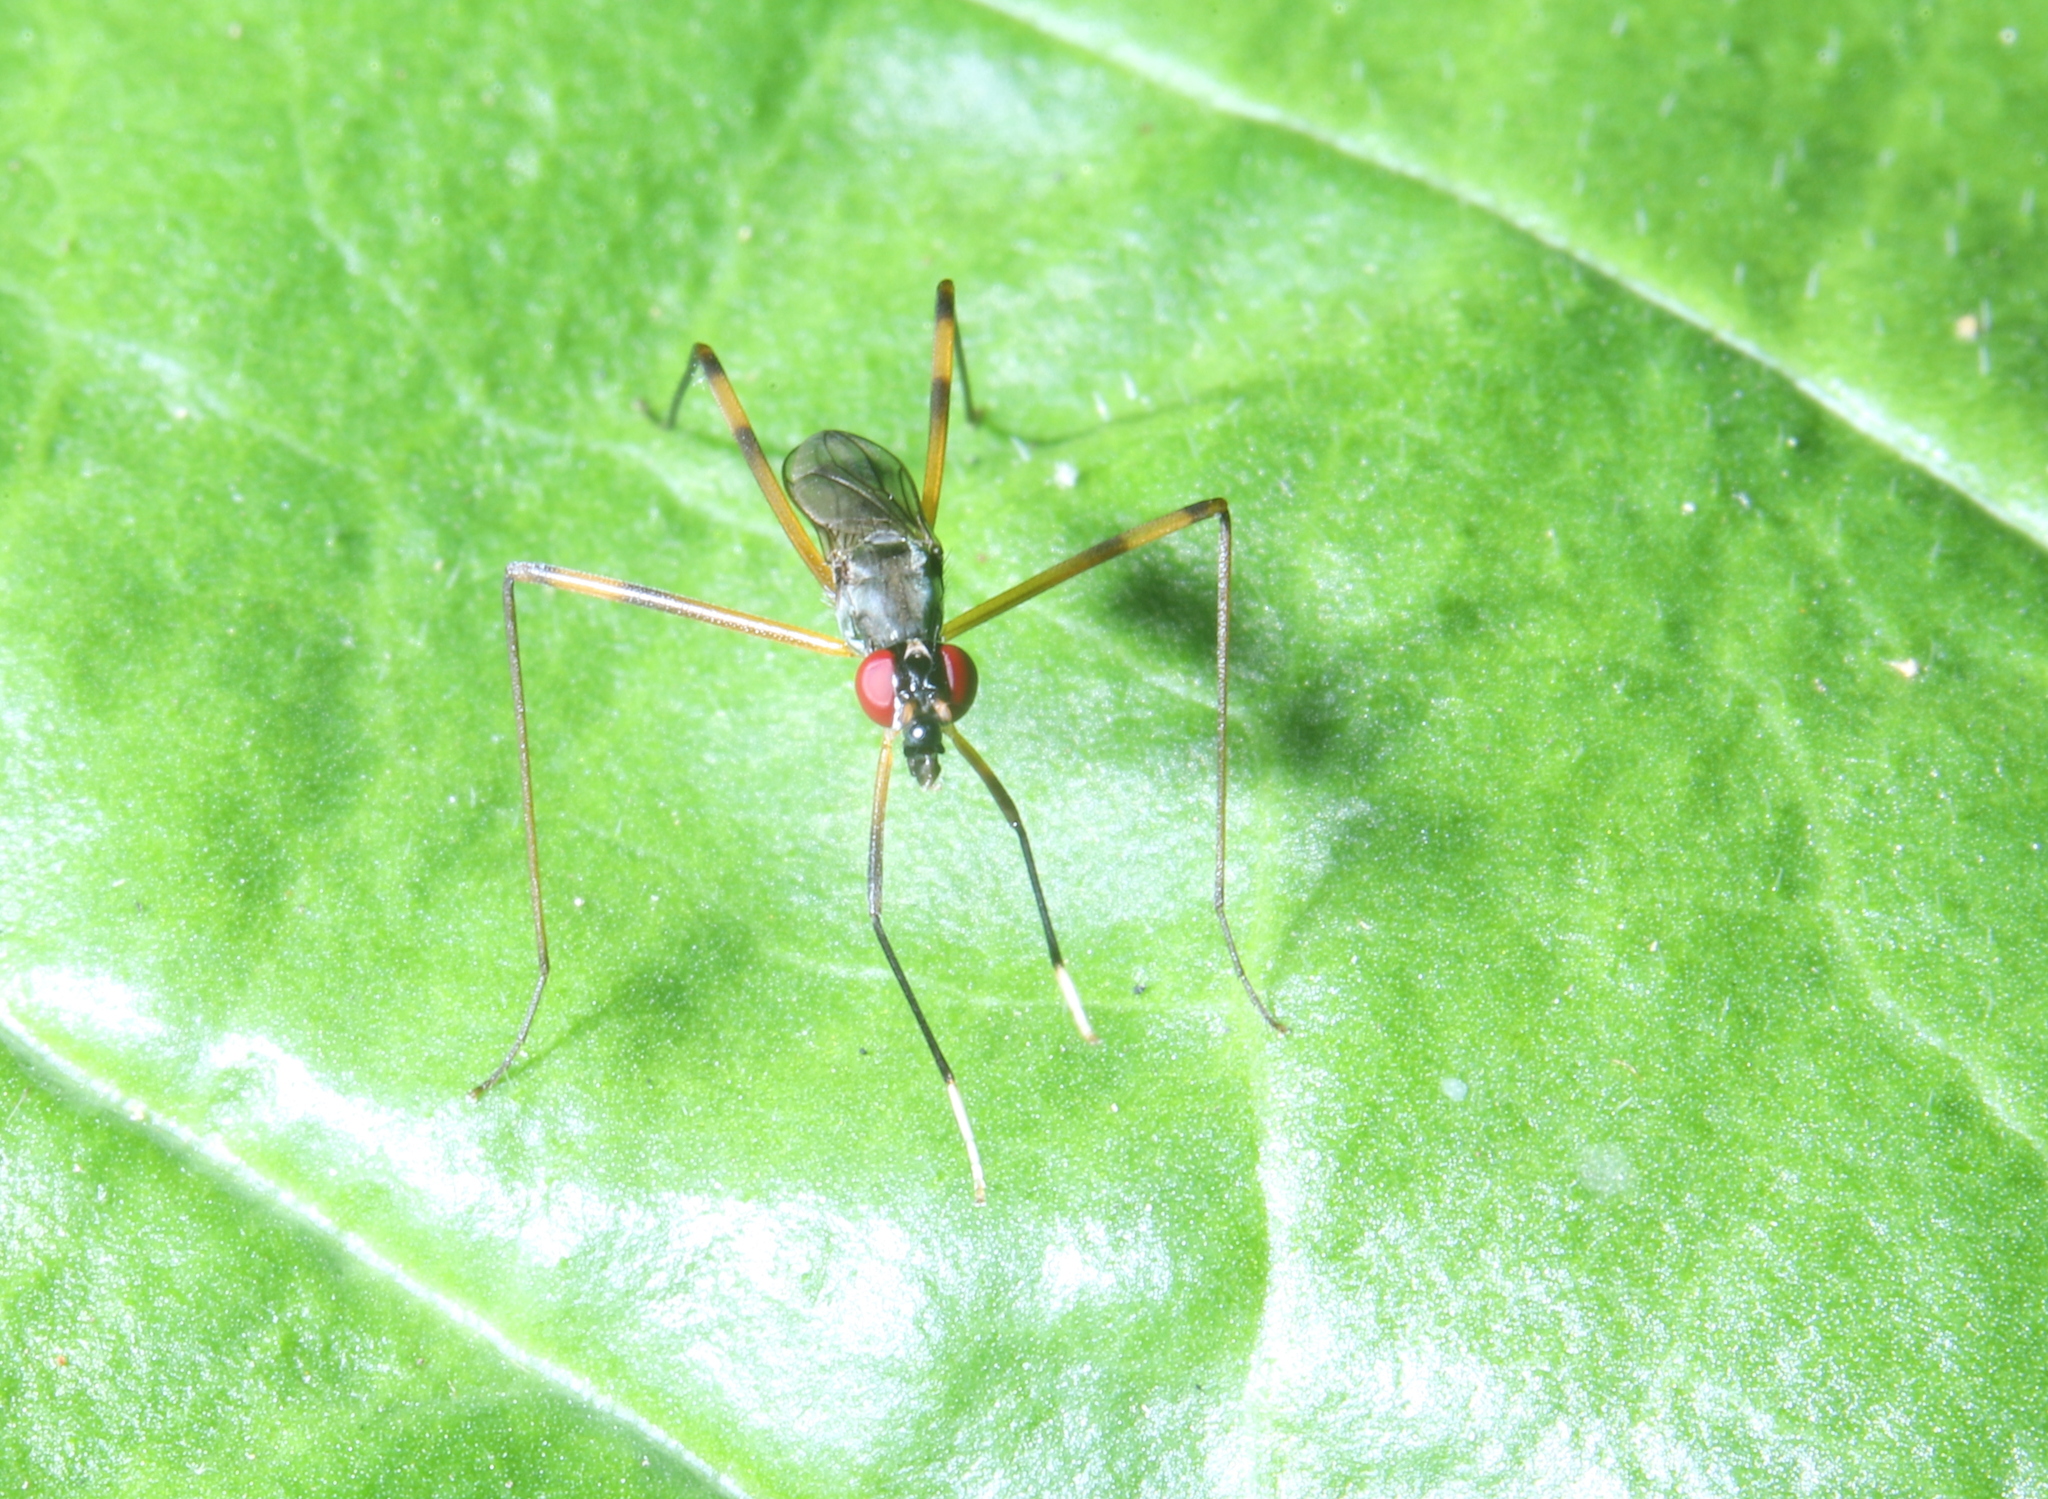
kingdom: Animalia
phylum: Arthropoda
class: Insecta
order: Diptera
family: Micropezidae
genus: Rainieria
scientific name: Rainieria antennaepes
